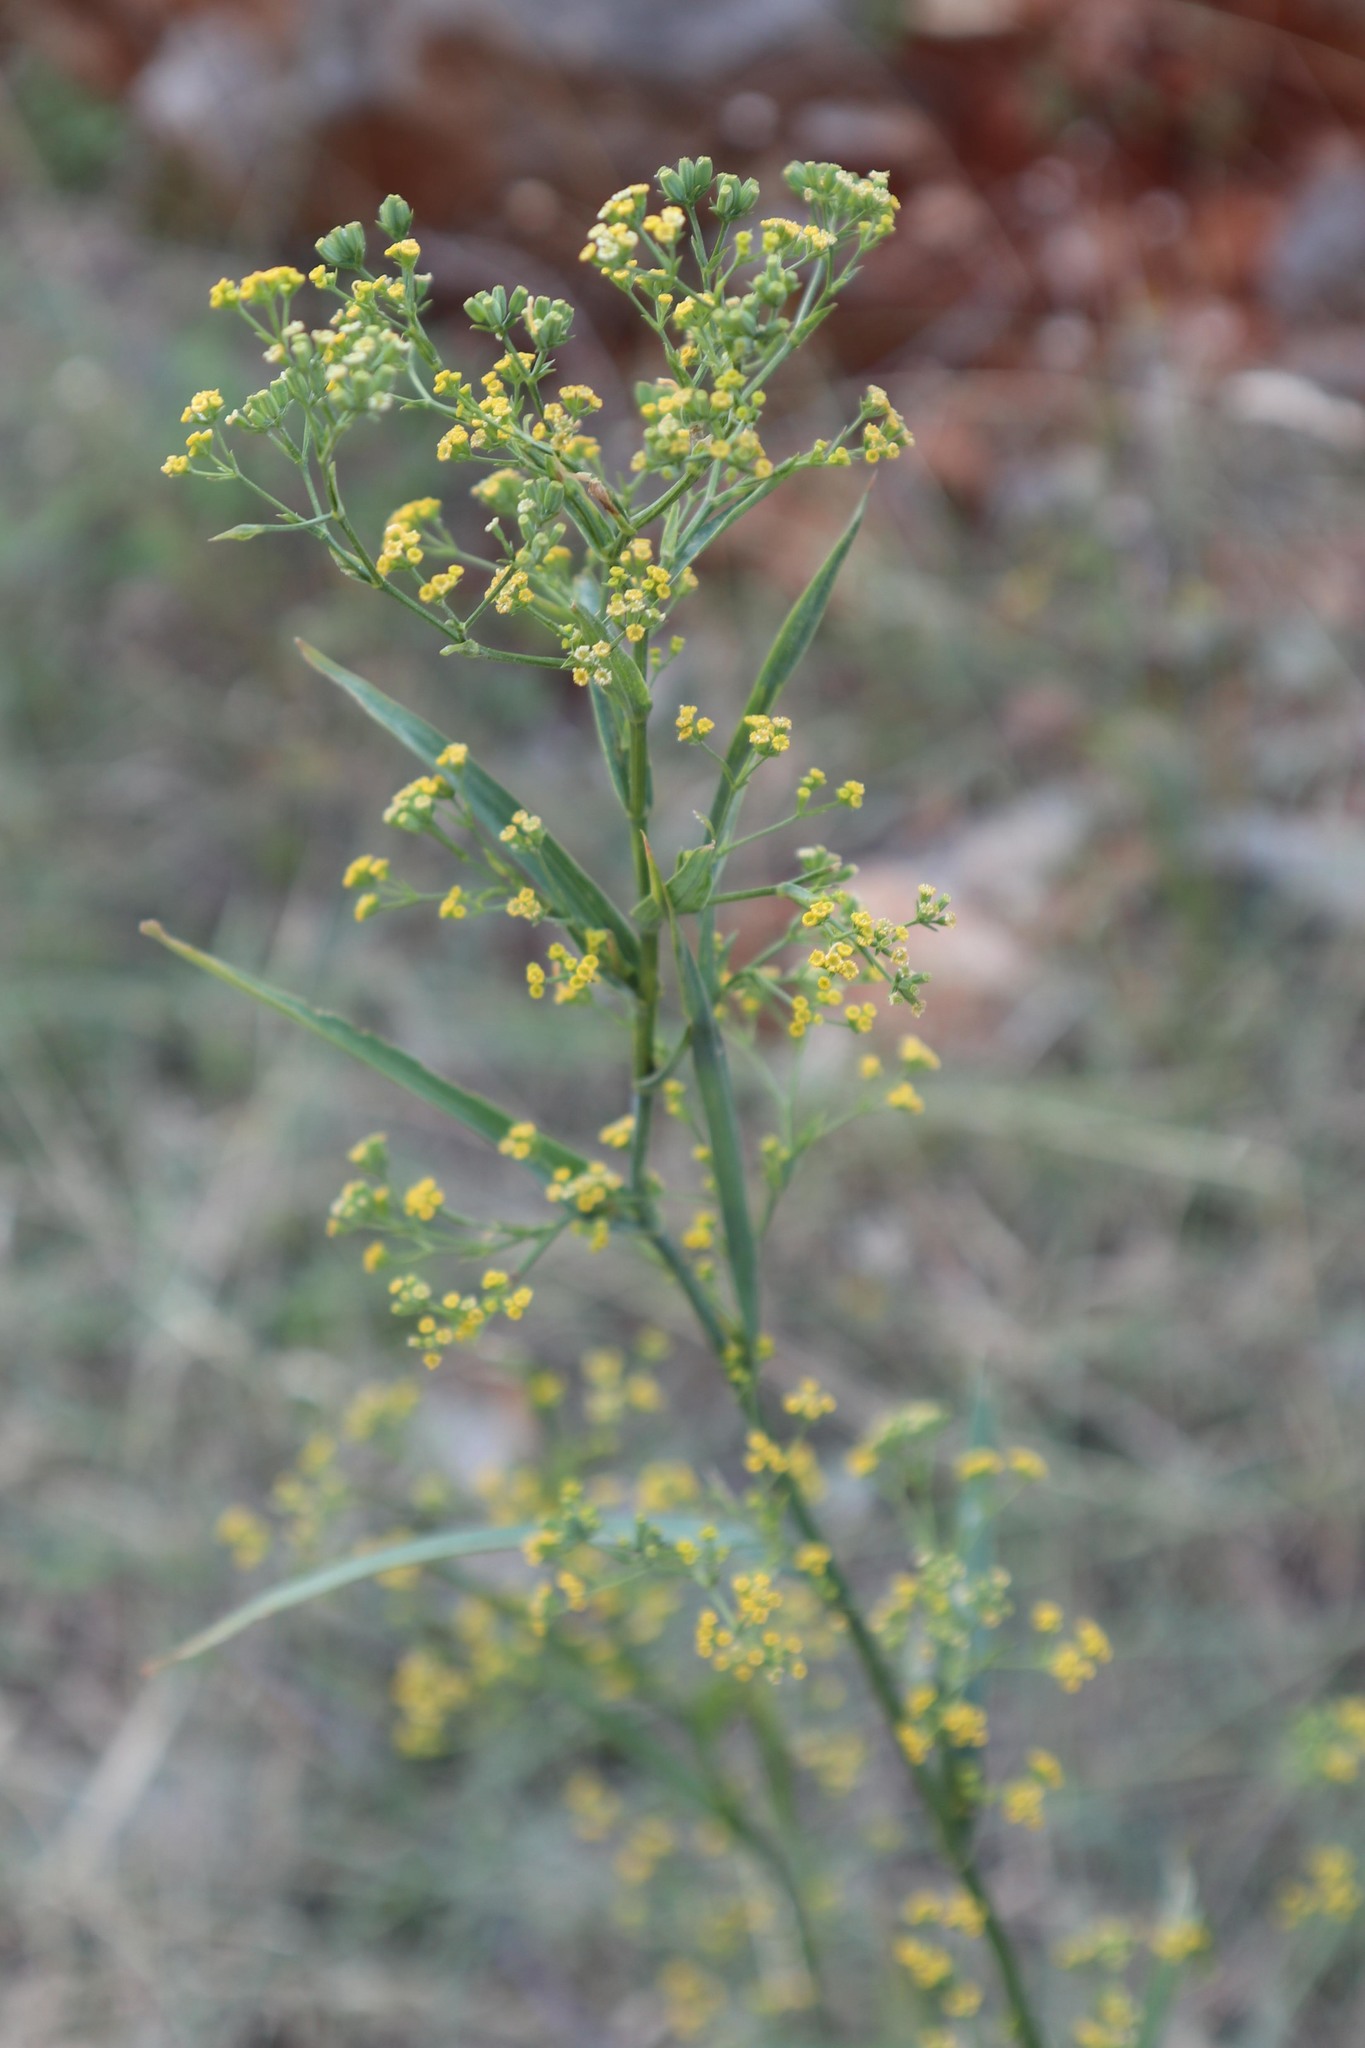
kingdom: Plantae
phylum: Tracheophyta
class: Magnoliopsida
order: Apiales
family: Apiaceae
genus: Bupleurum
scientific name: Bupleurum praealtum
